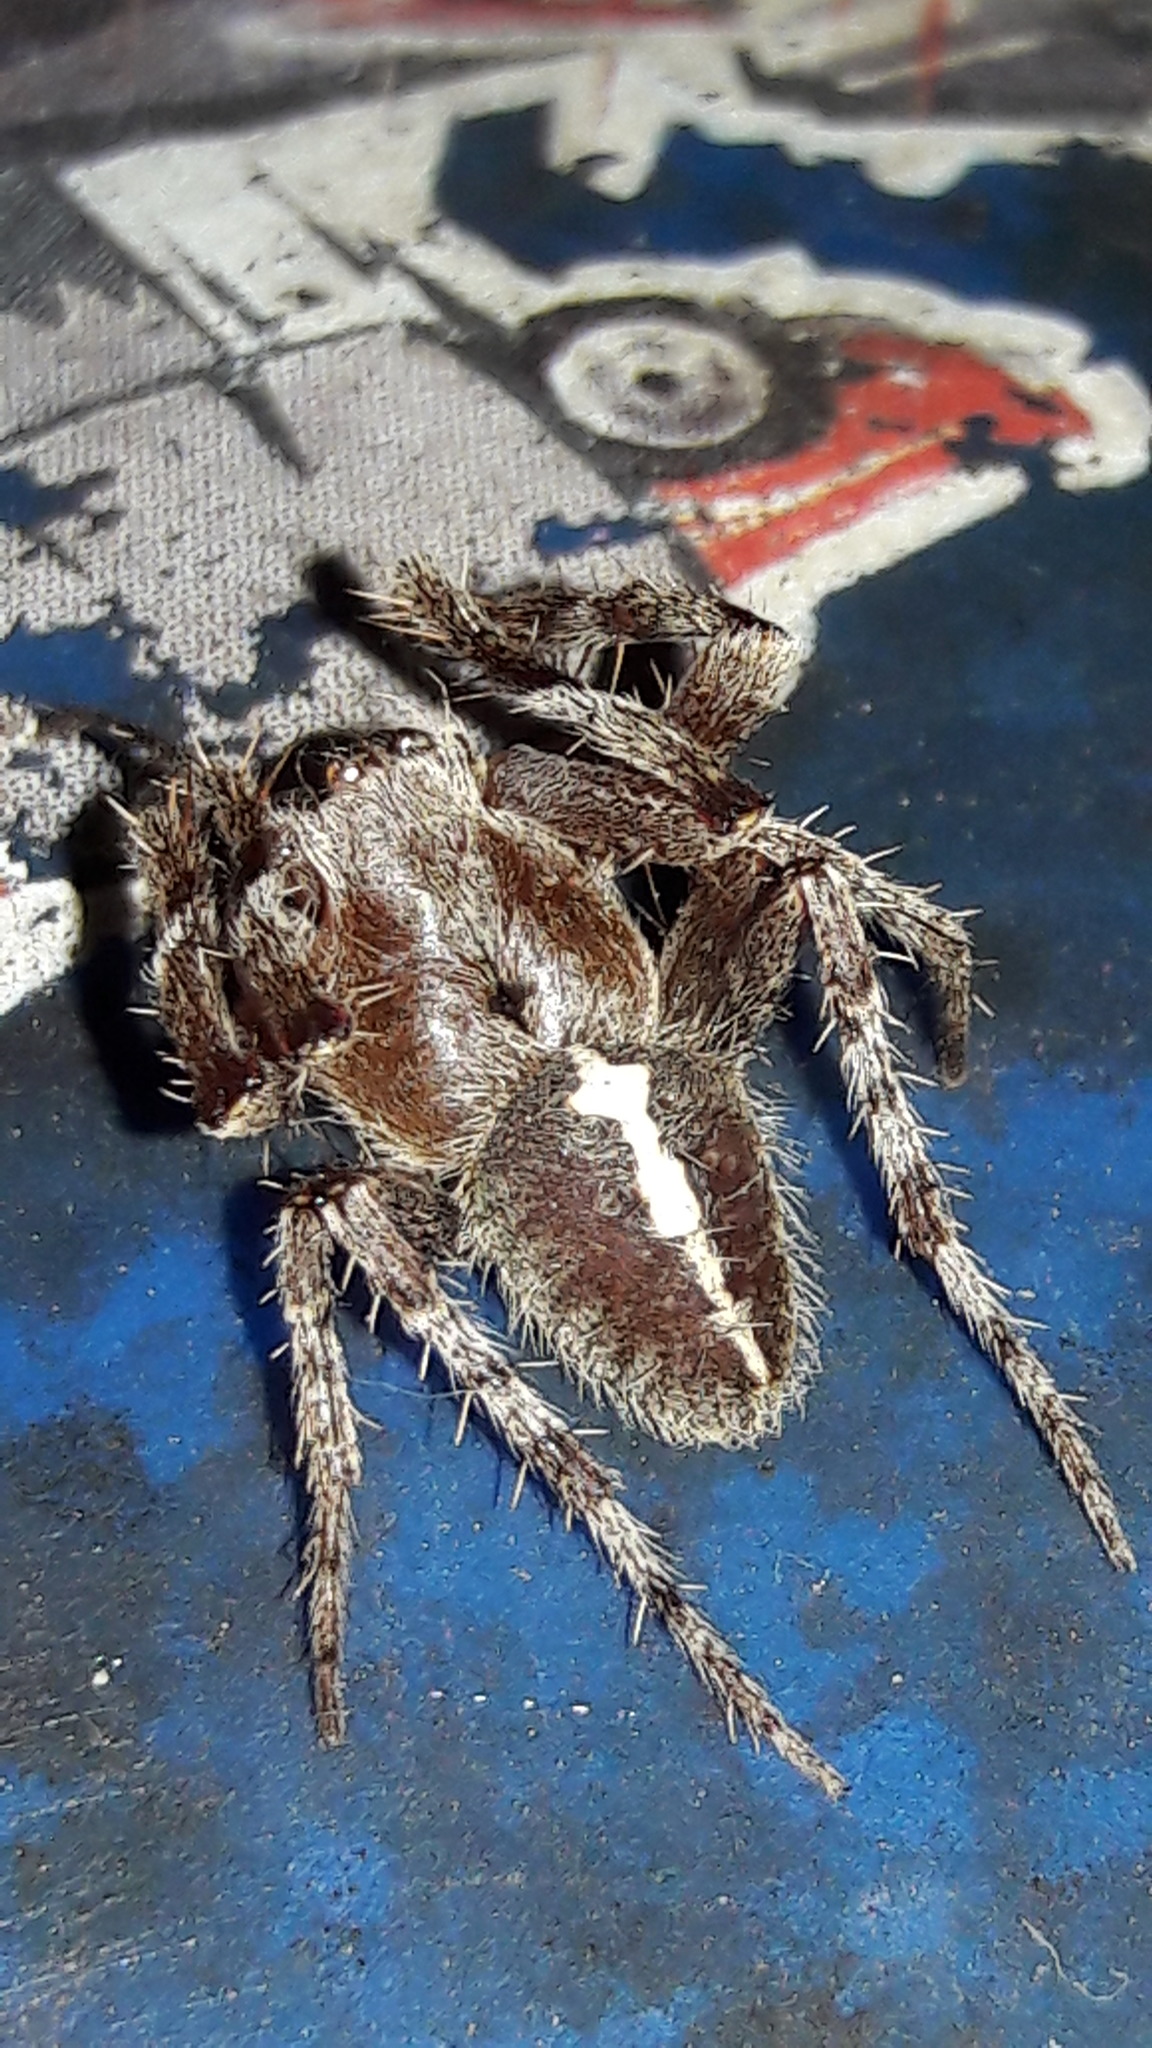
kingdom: Animalia
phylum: Arthropoda
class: Arachnida
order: Araneae
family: Araneidae
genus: Eriophora
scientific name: Eriophora edax
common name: Orb weavers
